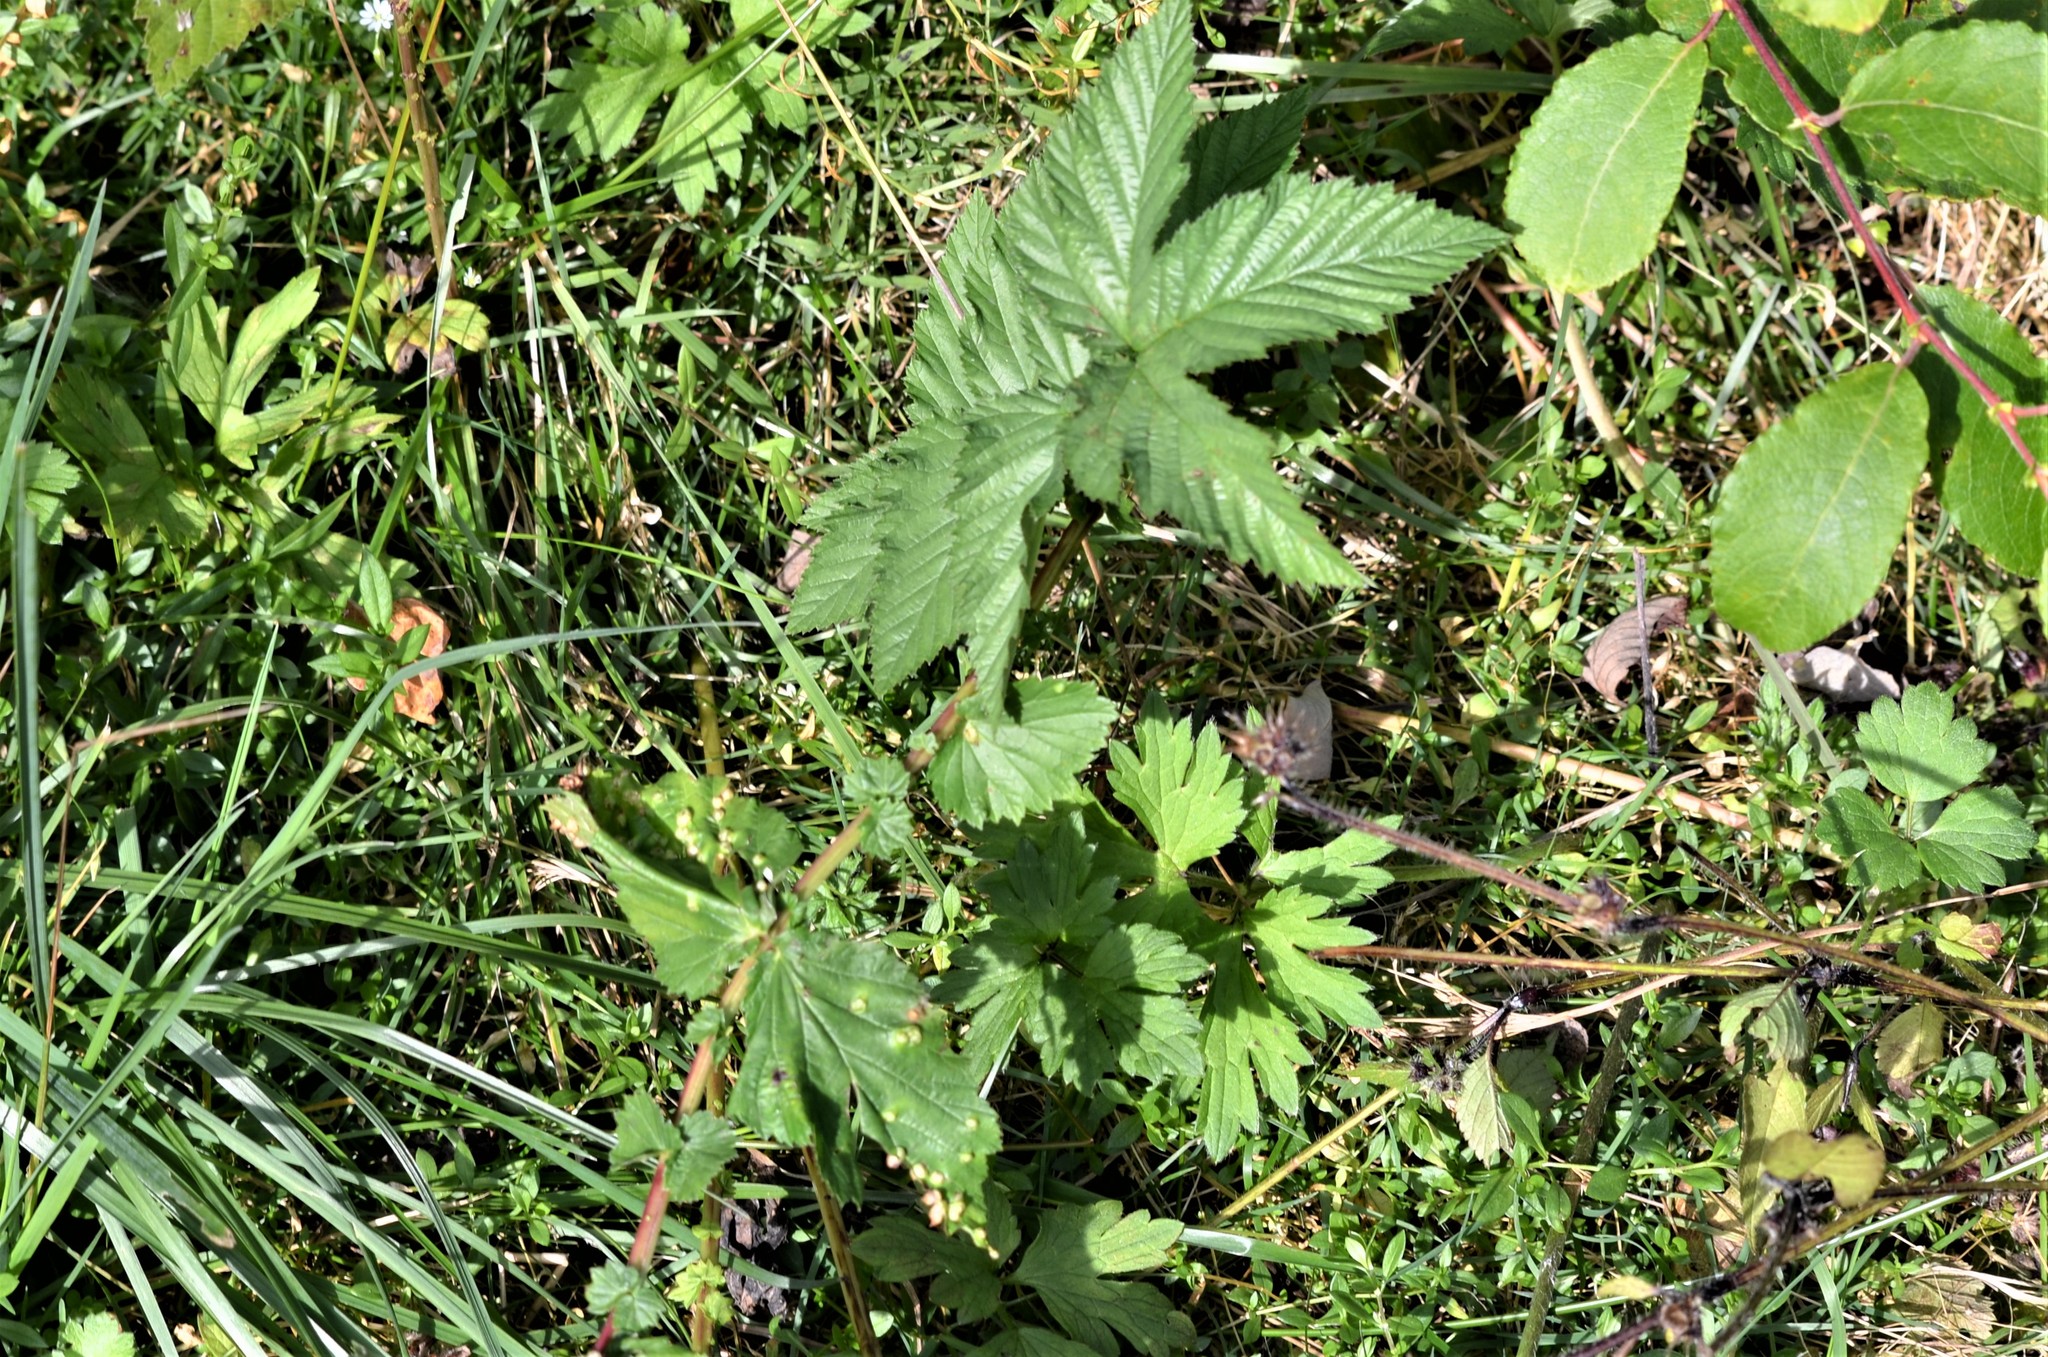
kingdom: Animalia
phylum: Arthropoda
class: Insecta
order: Diptera
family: Cecidomyiidae
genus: Dasineura
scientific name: Dasineura ulmaria
